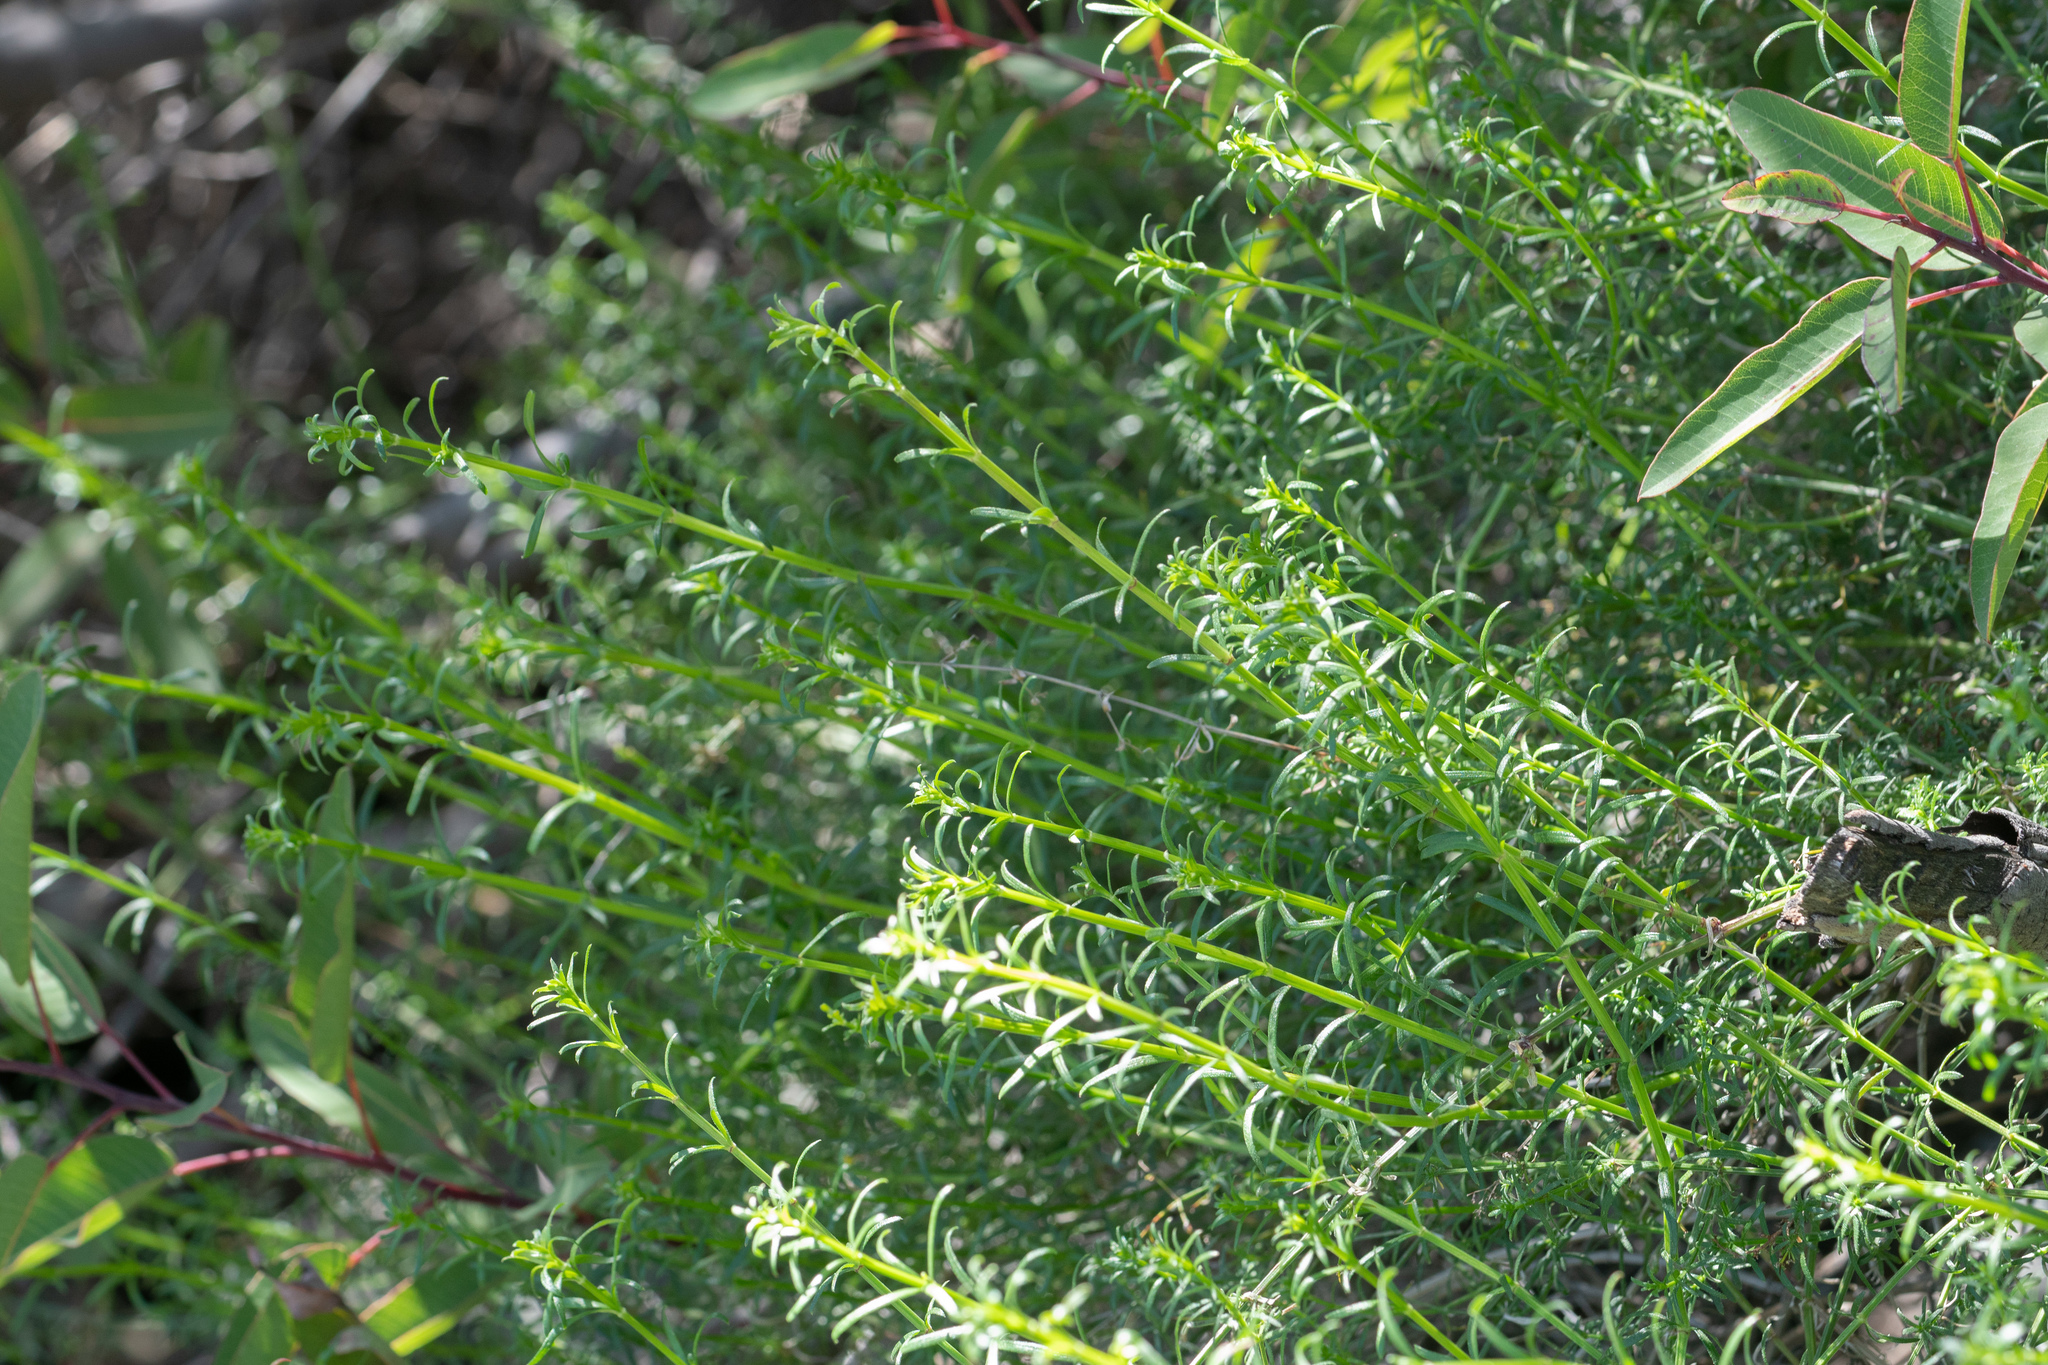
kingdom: Plantae
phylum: Tracheophyta
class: Magnoliopsida
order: Gentianales
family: Rubiaceae
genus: Galium
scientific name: Galium angustifolium
